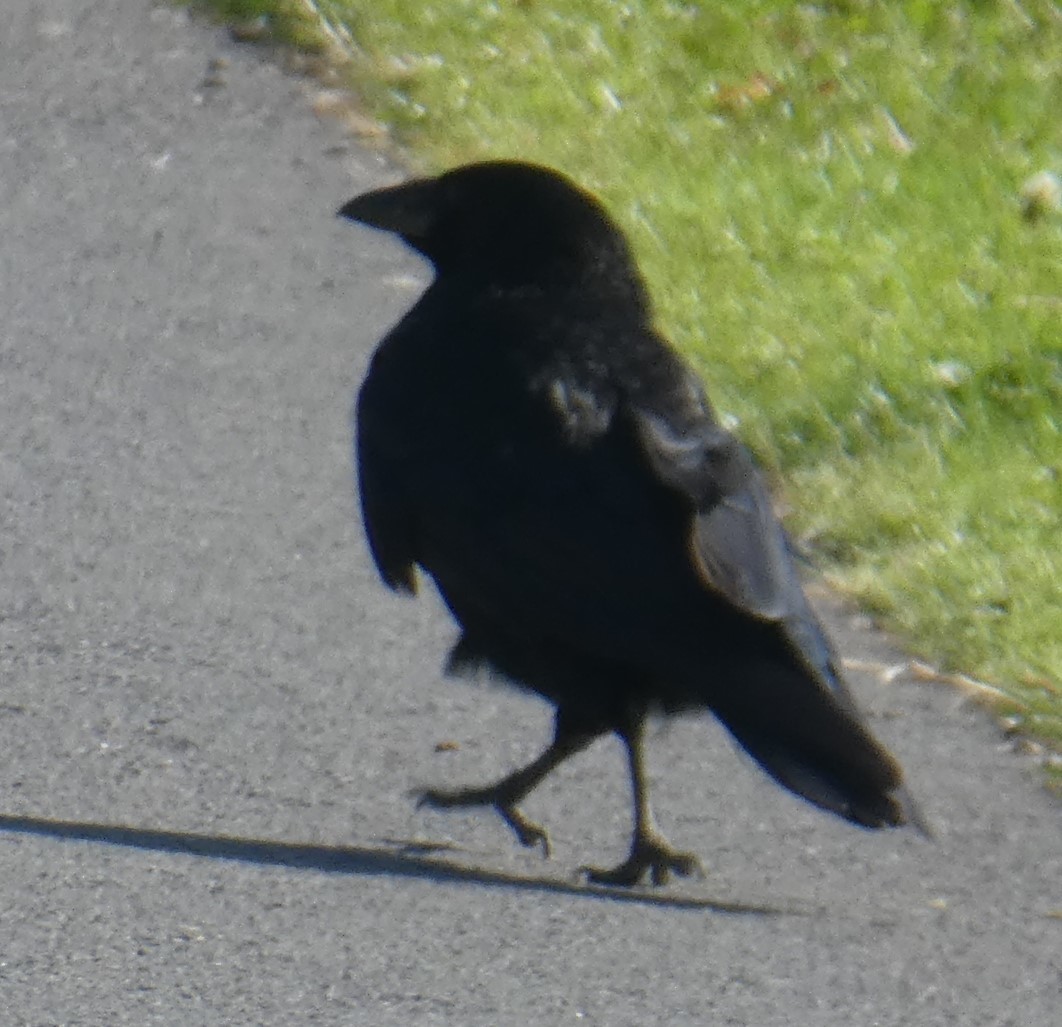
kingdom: Animalia
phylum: Chordata
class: Aves
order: Passeriformes
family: Corvidae
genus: Corvus
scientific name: Corvus corone
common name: Carrion crow
